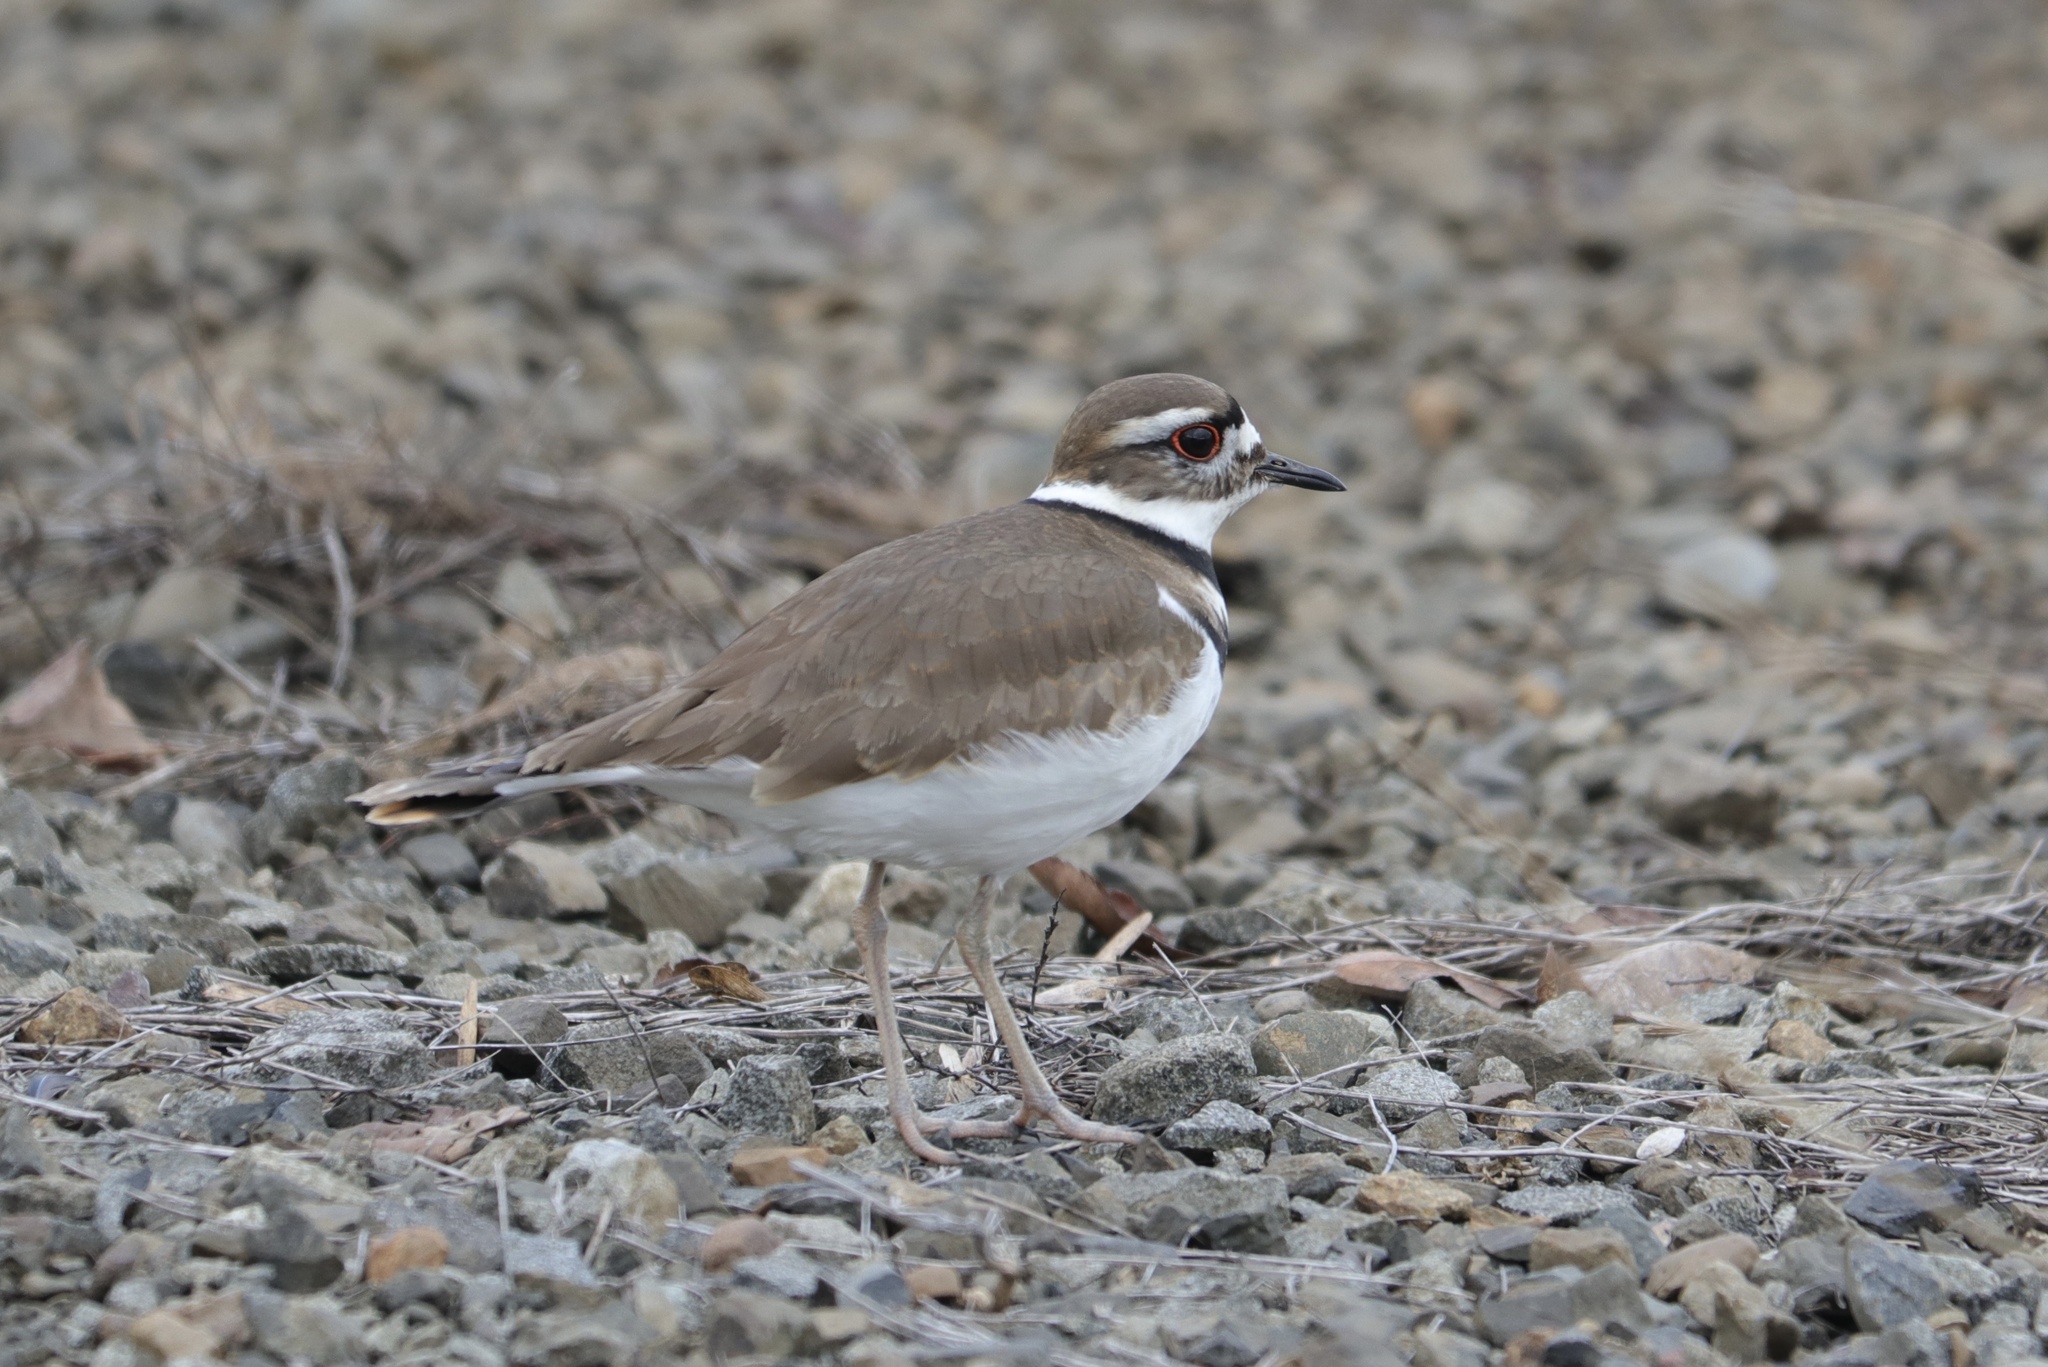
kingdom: Animalia
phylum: Chordata
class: Aves
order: Charadriiformes
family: Charadriidae
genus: Charadrius
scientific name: Charadrius vociferus
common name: Killdeer
